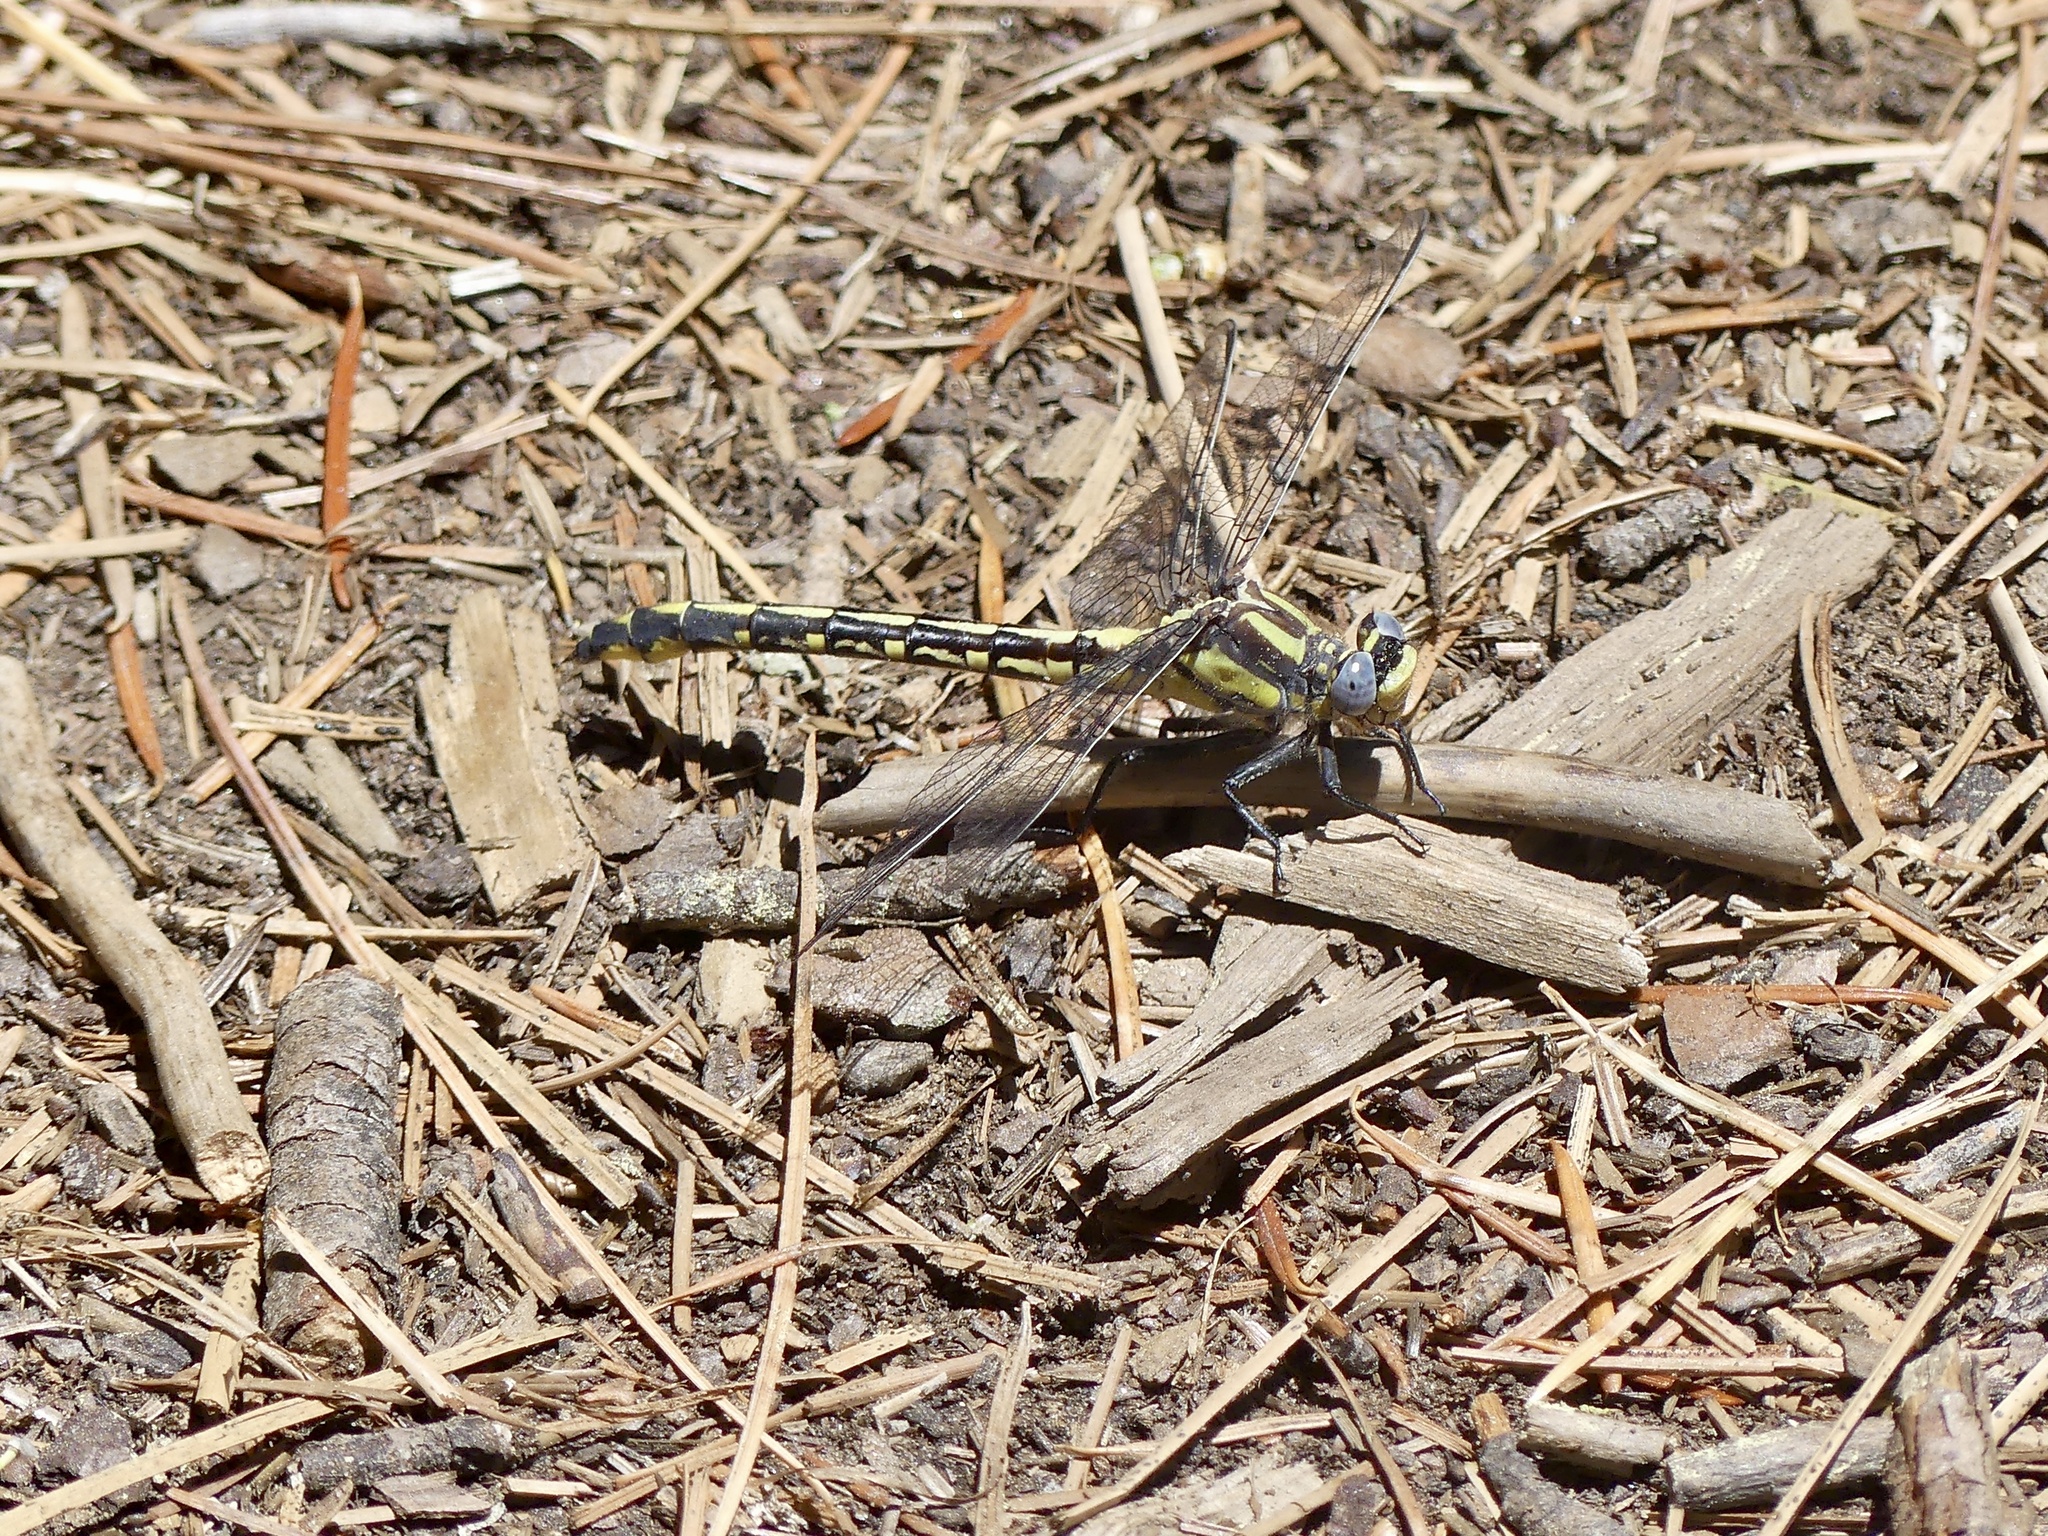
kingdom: Animalia
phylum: Arthropoda
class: Insecta
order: Odonata
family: Gomphidae
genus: Phanogomphus
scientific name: Phanogomphus kurilis
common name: Pacific clubtail
